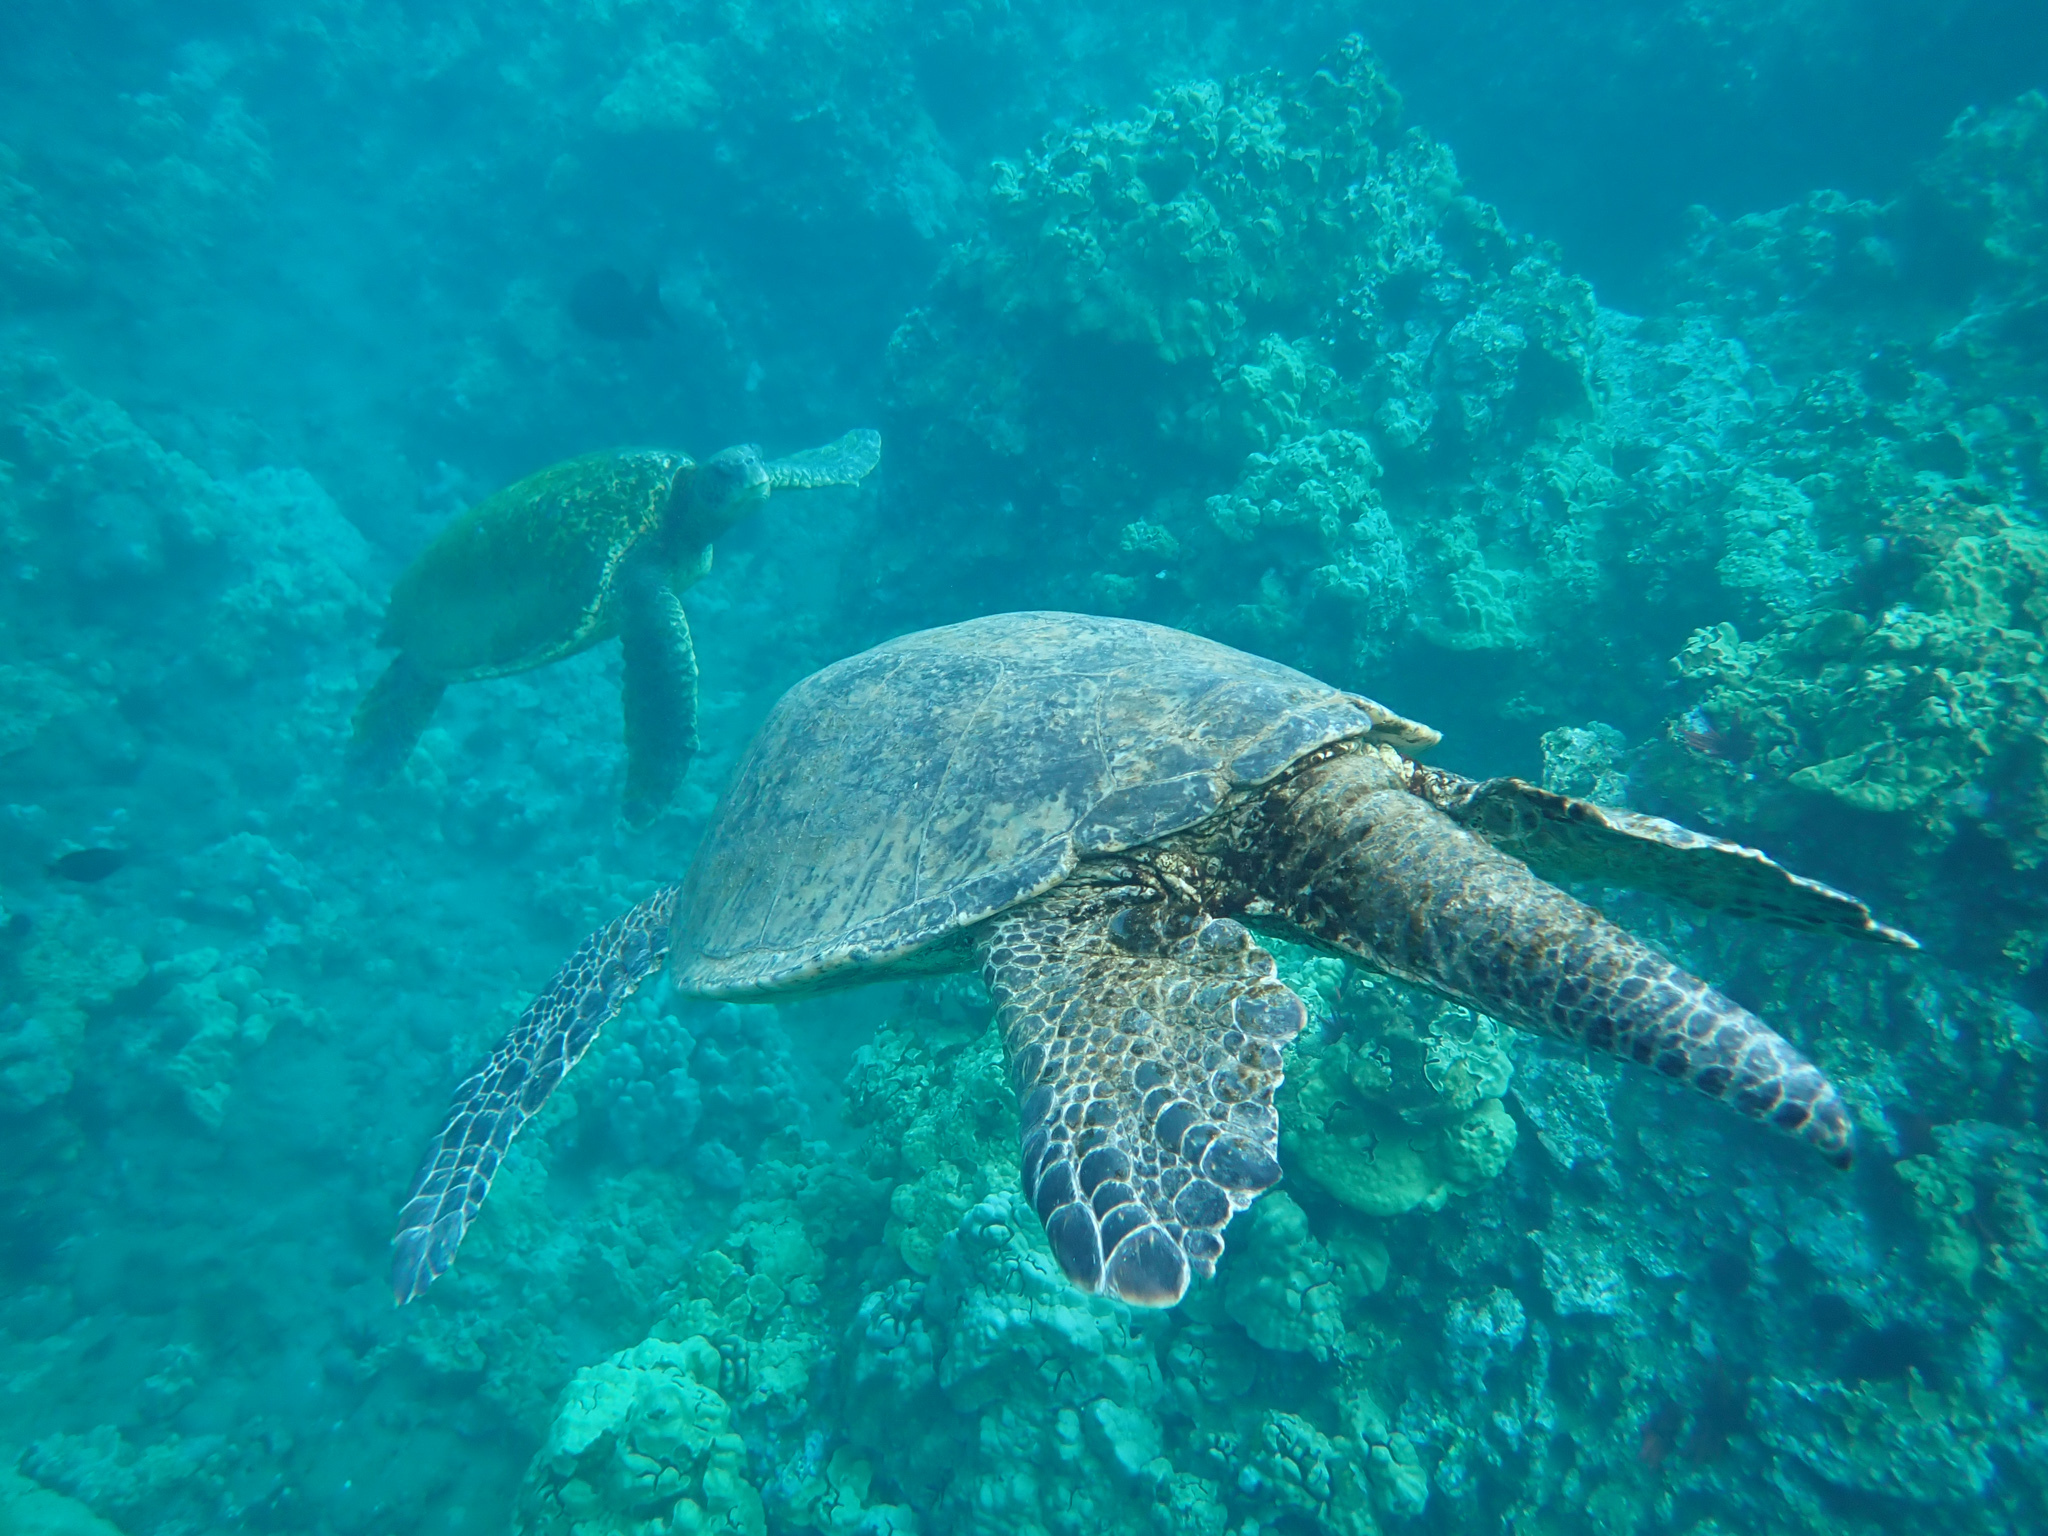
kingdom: Animalia
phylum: Chordata
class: Testudines
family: Cheloniidae
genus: Chelonia
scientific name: Chelonia mydas
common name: Green turtle
